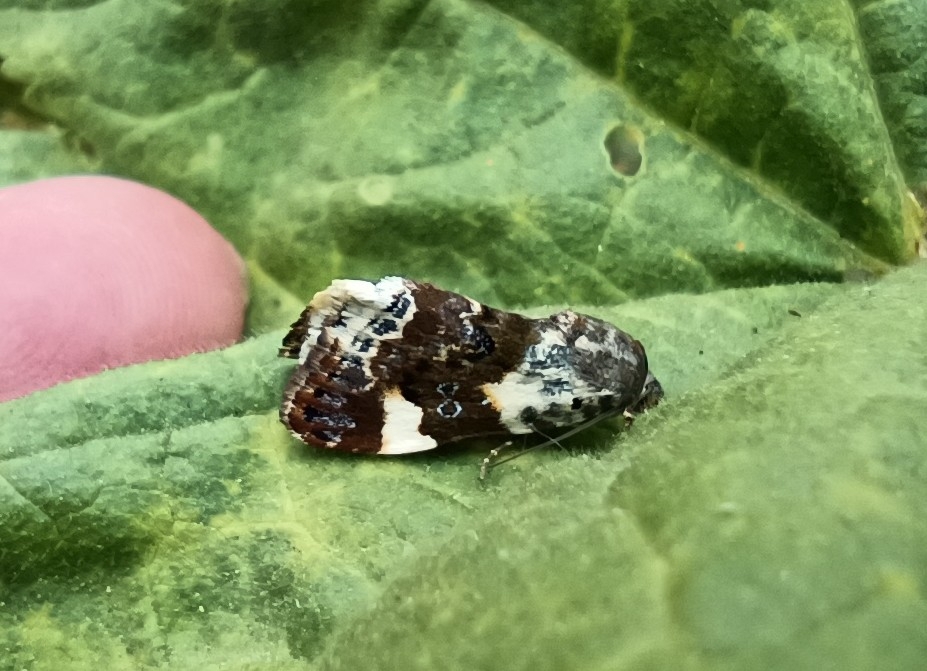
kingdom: Animalia
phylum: Arthropoda
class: Insecta
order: Lepidoptera
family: Noctuidae
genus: Acontia
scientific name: Acontia lucida
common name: Pale shoulder
